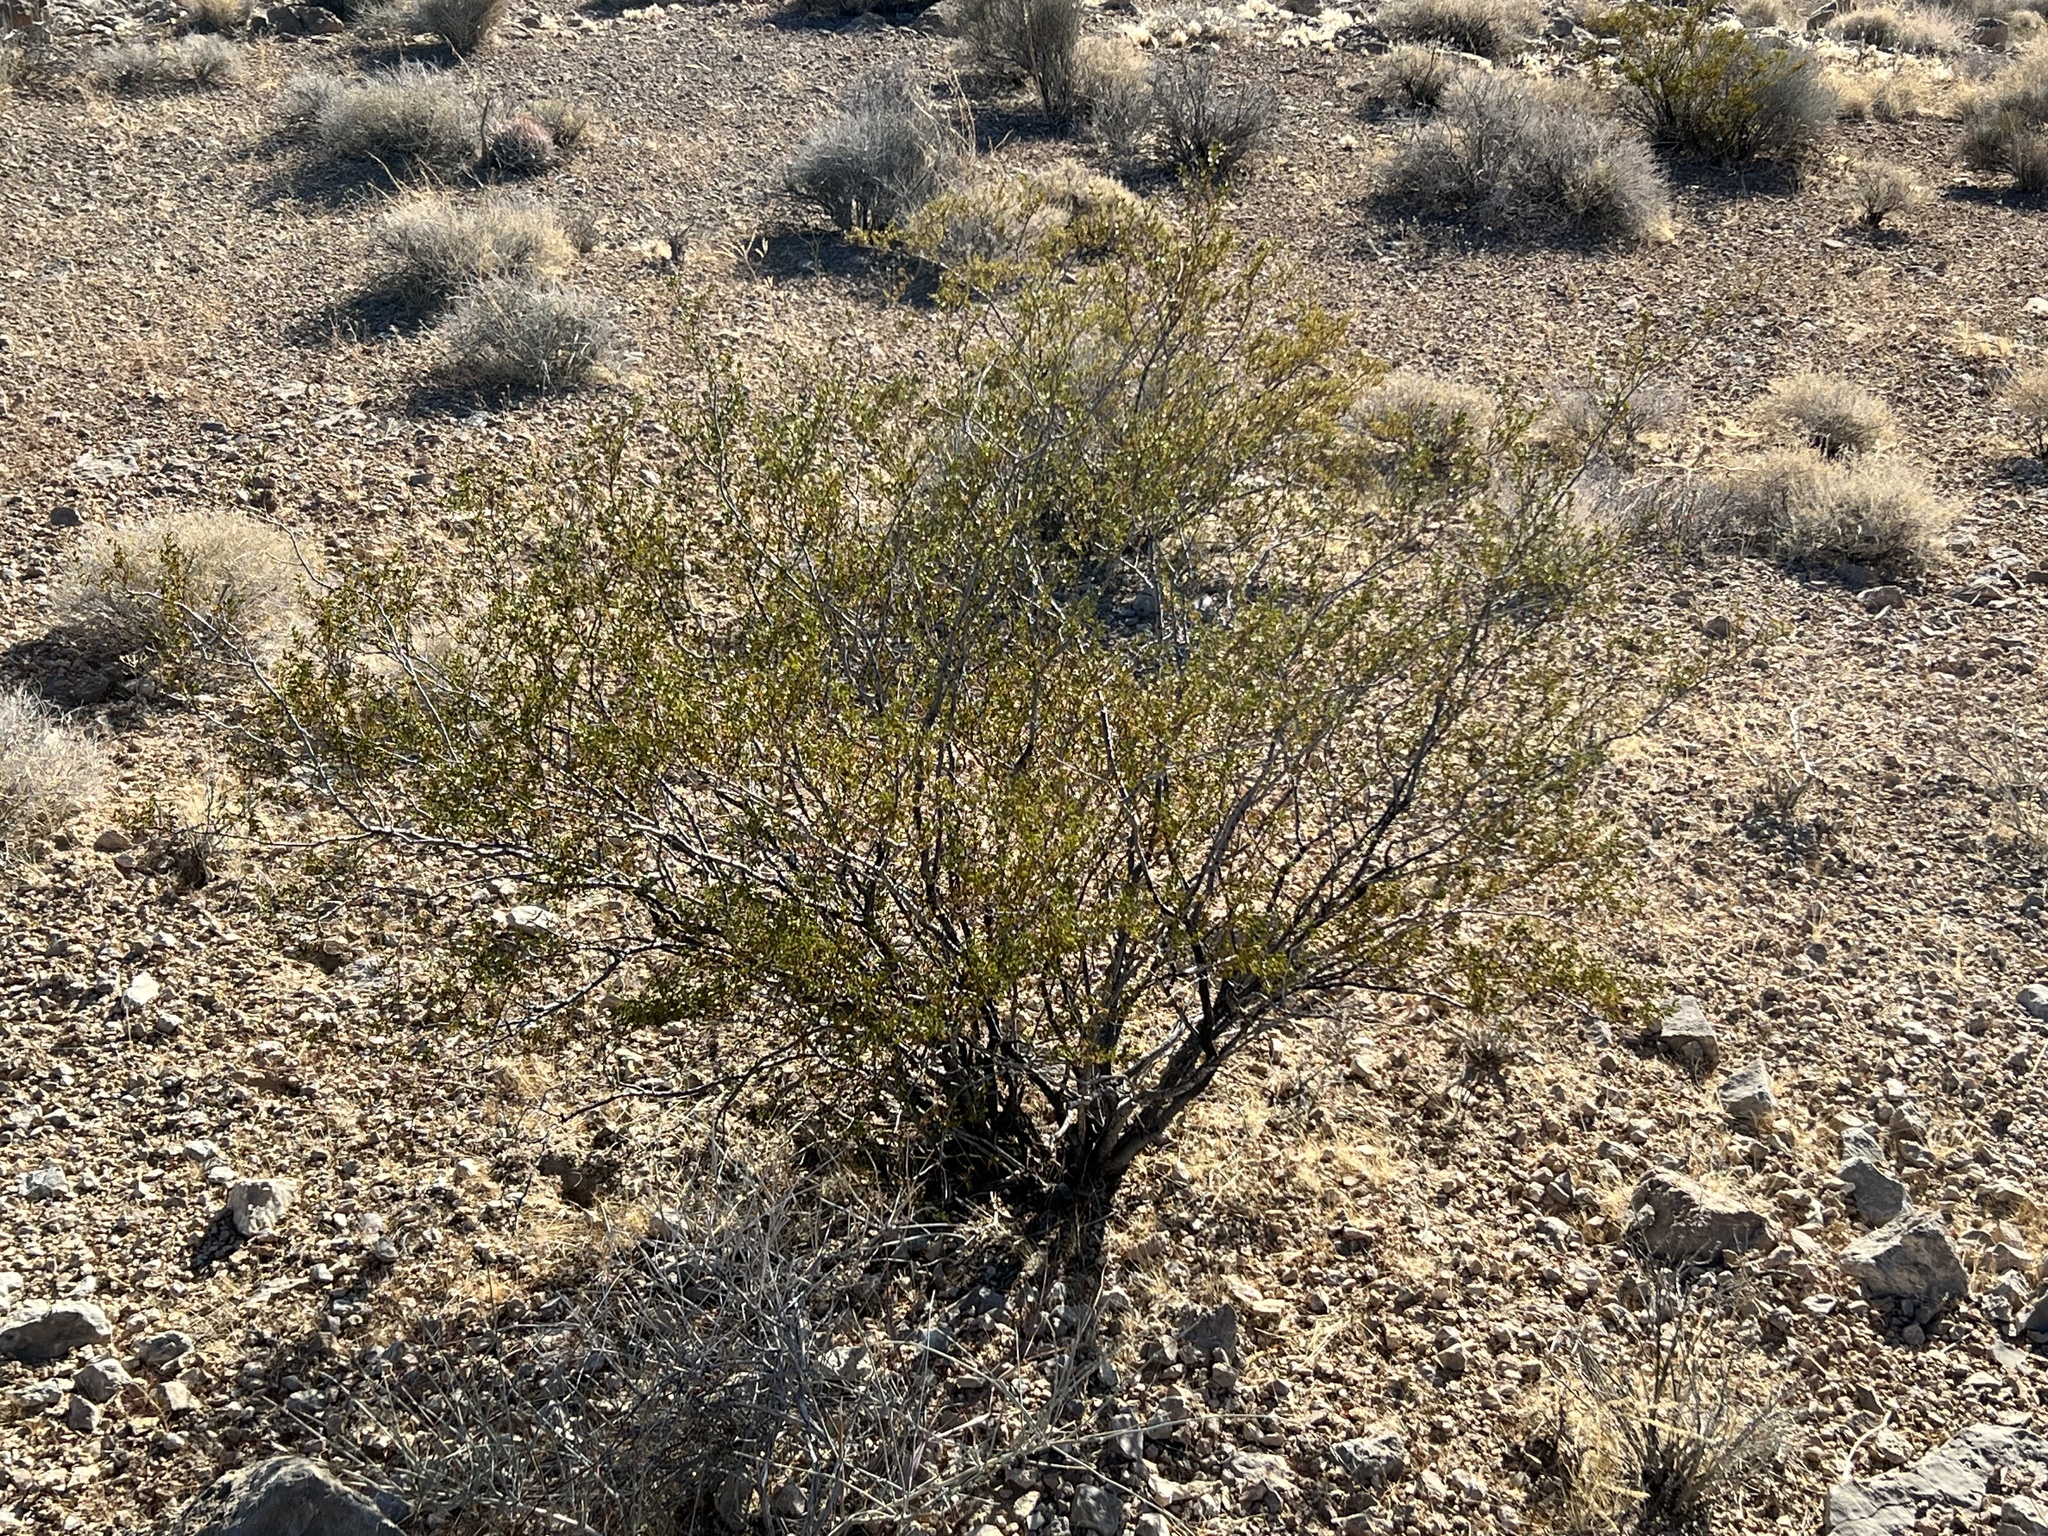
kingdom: Plantae
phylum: Tracheophyta
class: Magnoliopsida
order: Zygophyllales
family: Zygophyllaceae
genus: Larrea
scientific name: Larrea tridentata
